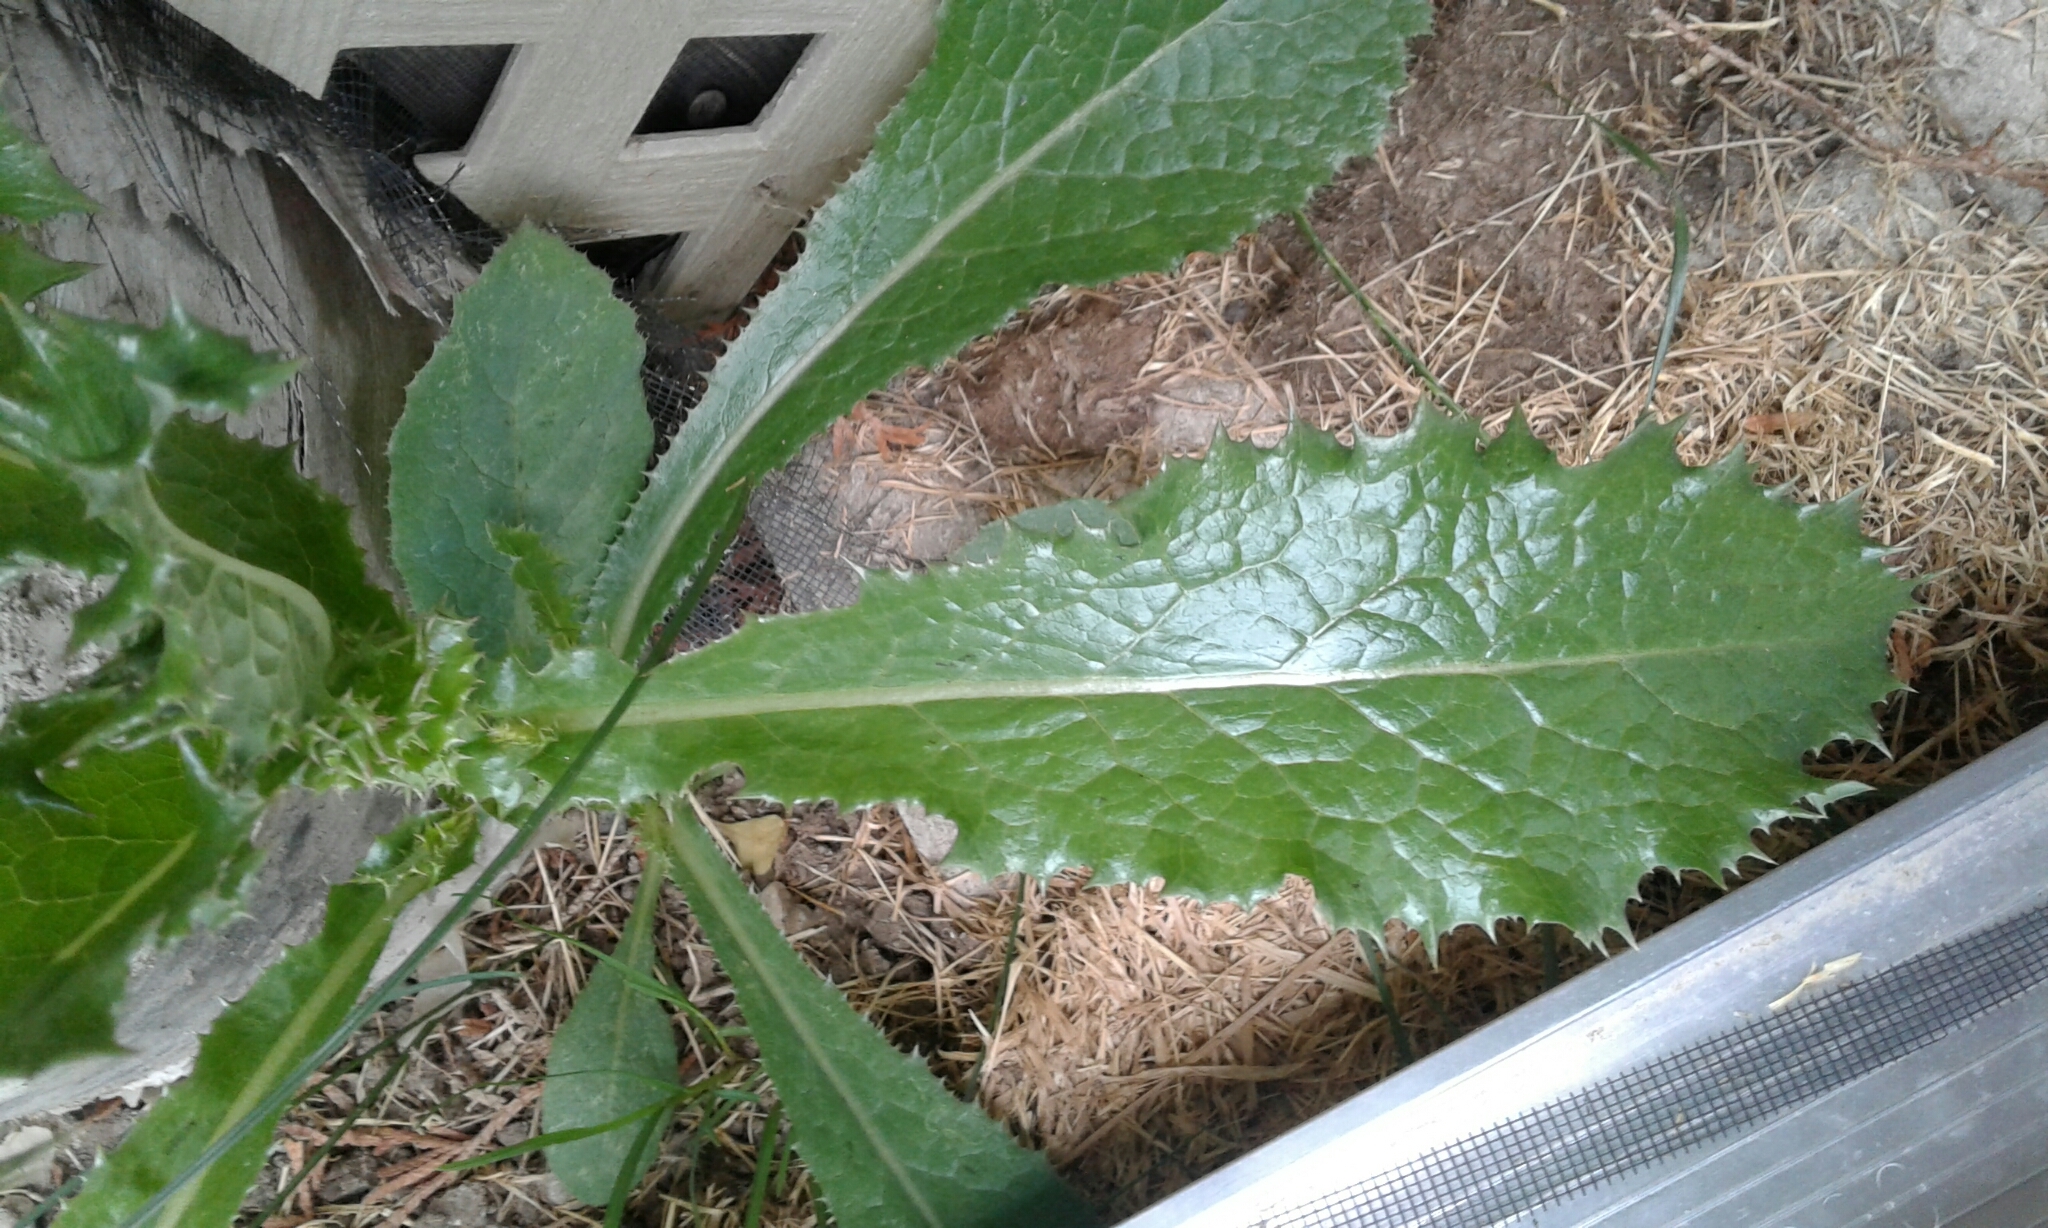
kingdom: Plantae
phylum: Tracheophyta
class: Magnoliopsida
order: Asterales
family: Asteraceae
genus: Sonchus
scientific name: Sonchus asper
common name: Prickly sow-thistle
